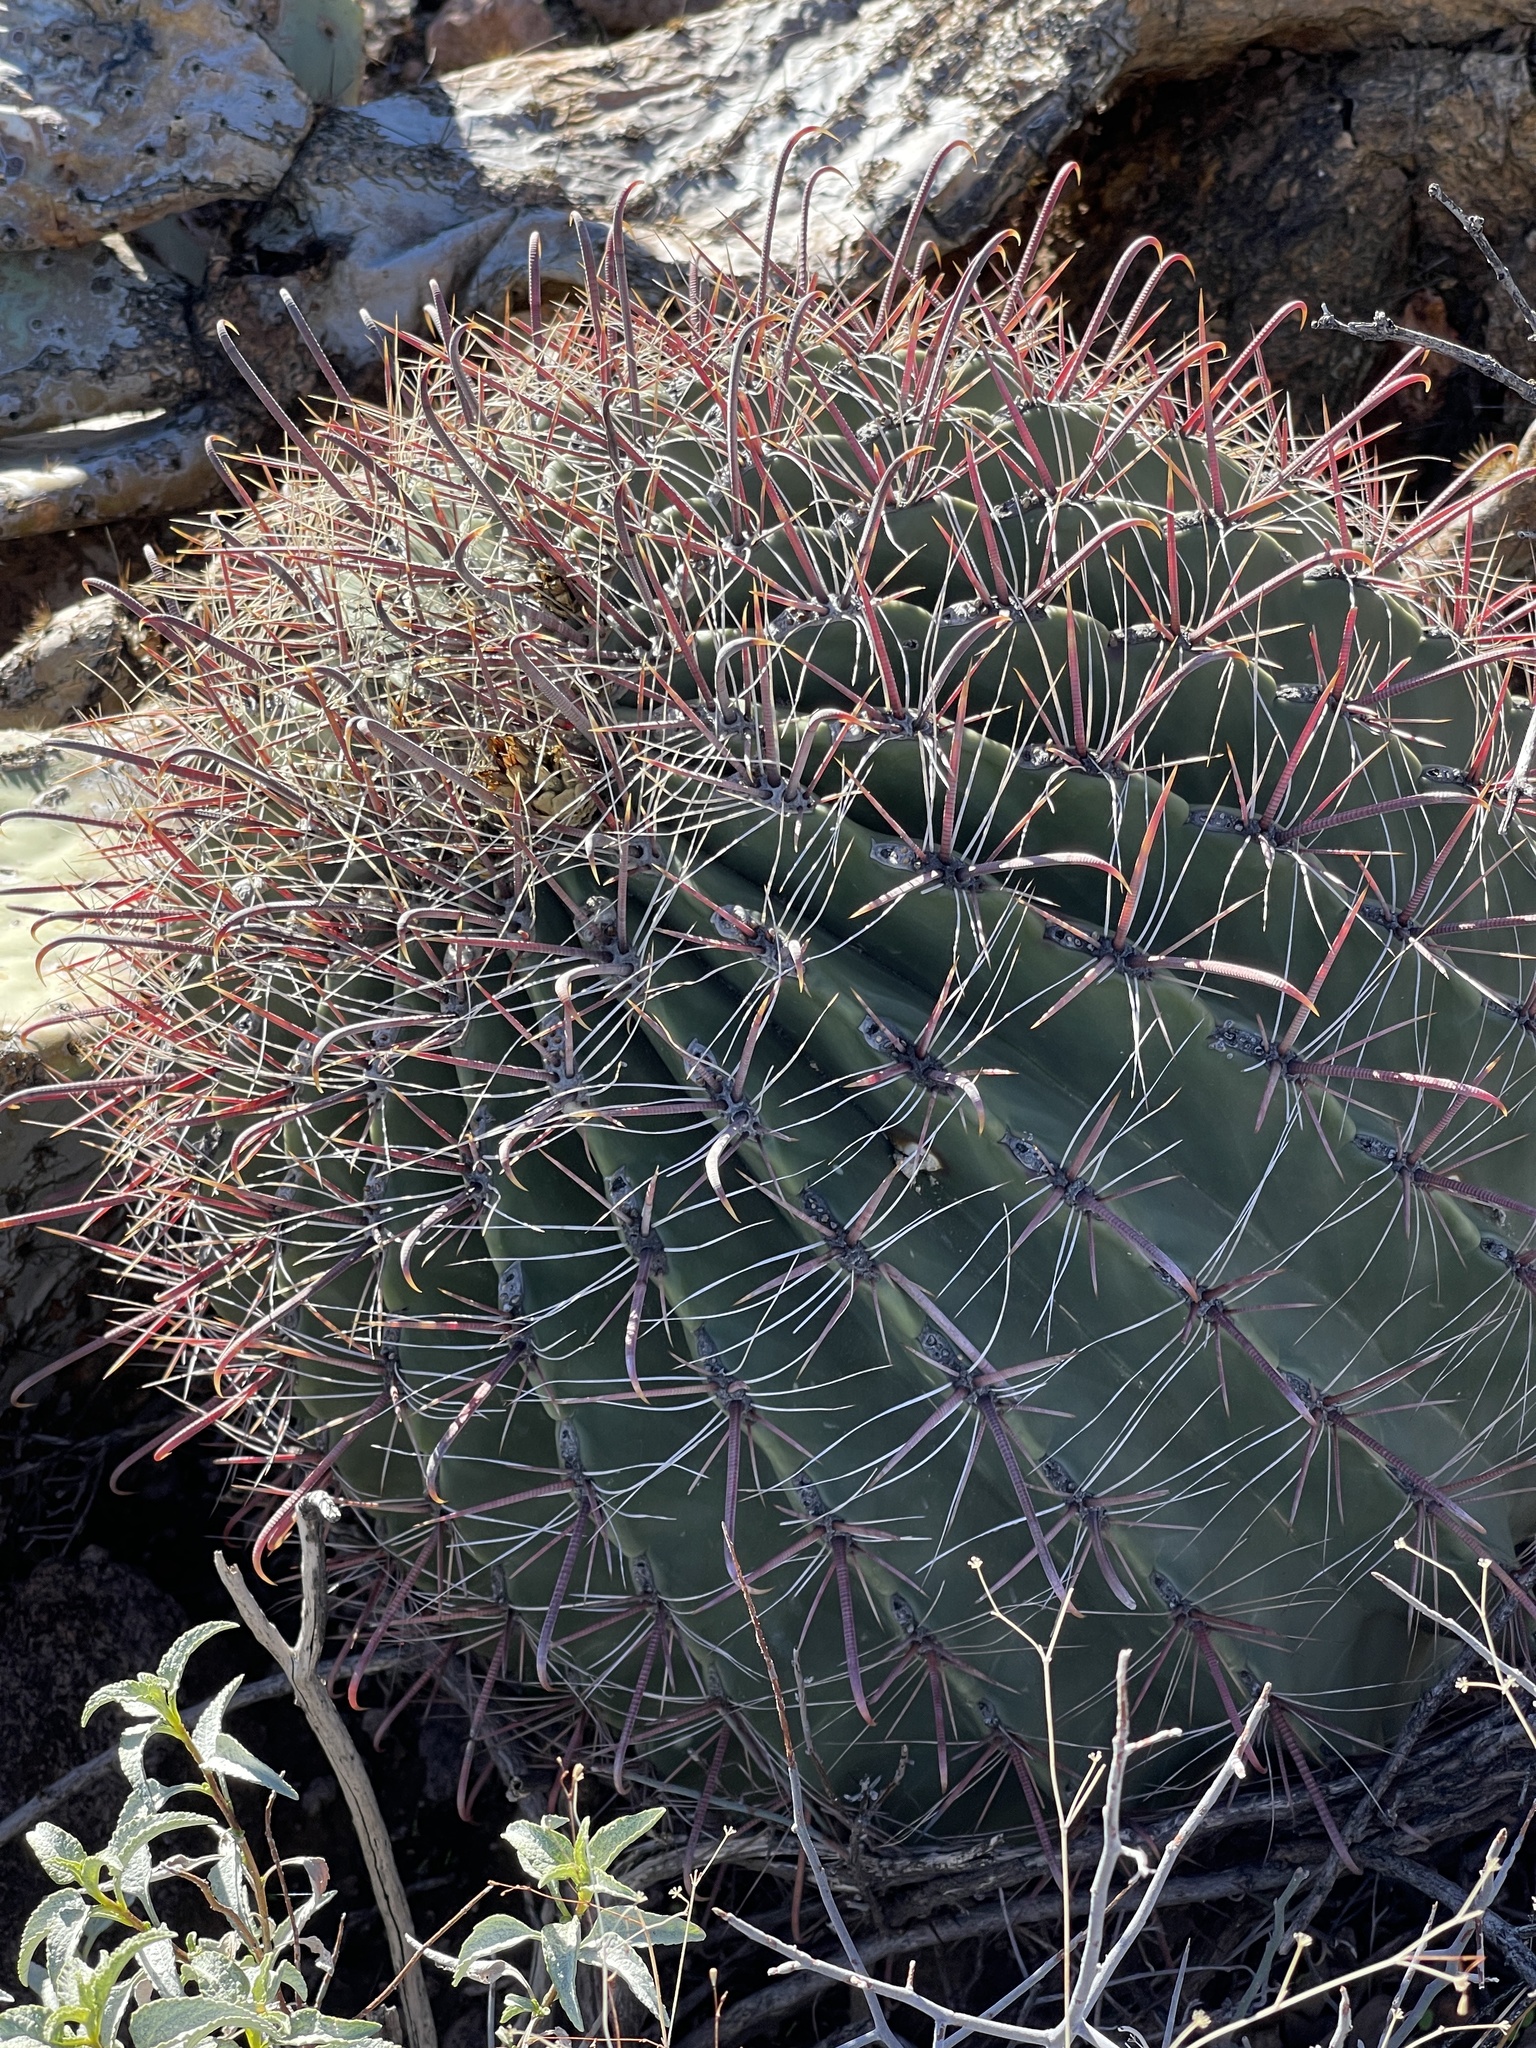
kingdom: Plantae
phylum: Tracheophyta
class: Magnoliopsida
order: Caryophyllales
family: Cactaceae
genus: Ferocactus
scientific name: Ferocactus wislizeni
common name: Candy barrel cactus
